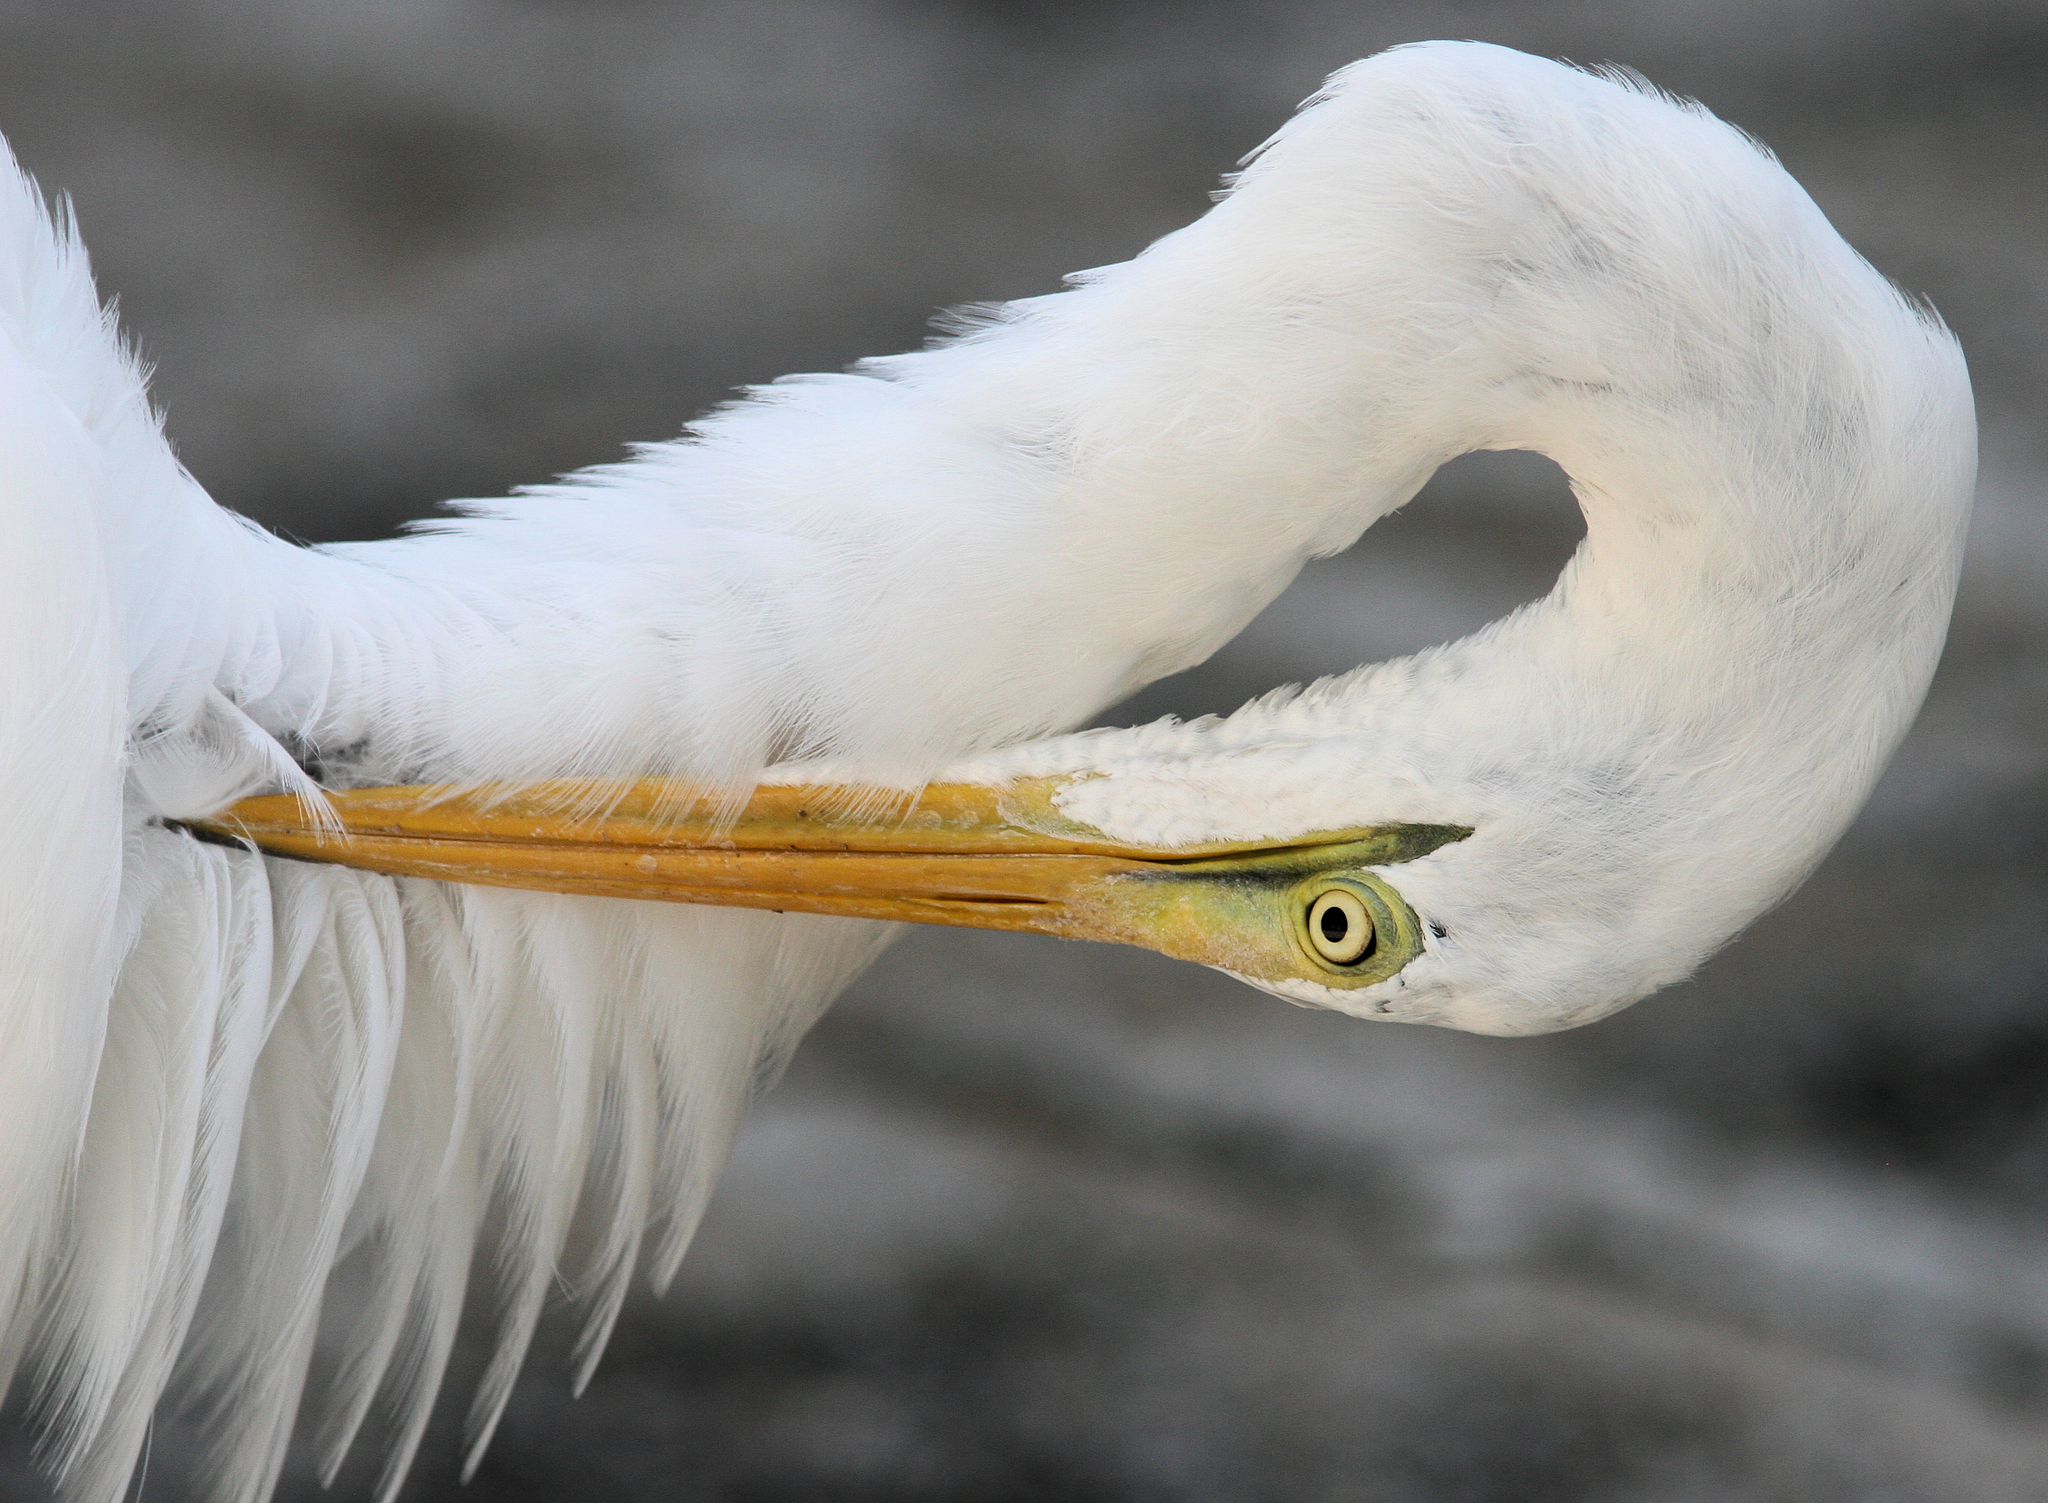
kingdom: Animalia
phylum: Chordata
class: Aves
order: Pelecaniformes
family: Ardeidae
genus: Ardea
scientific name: Ardea alba
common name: Great egret
